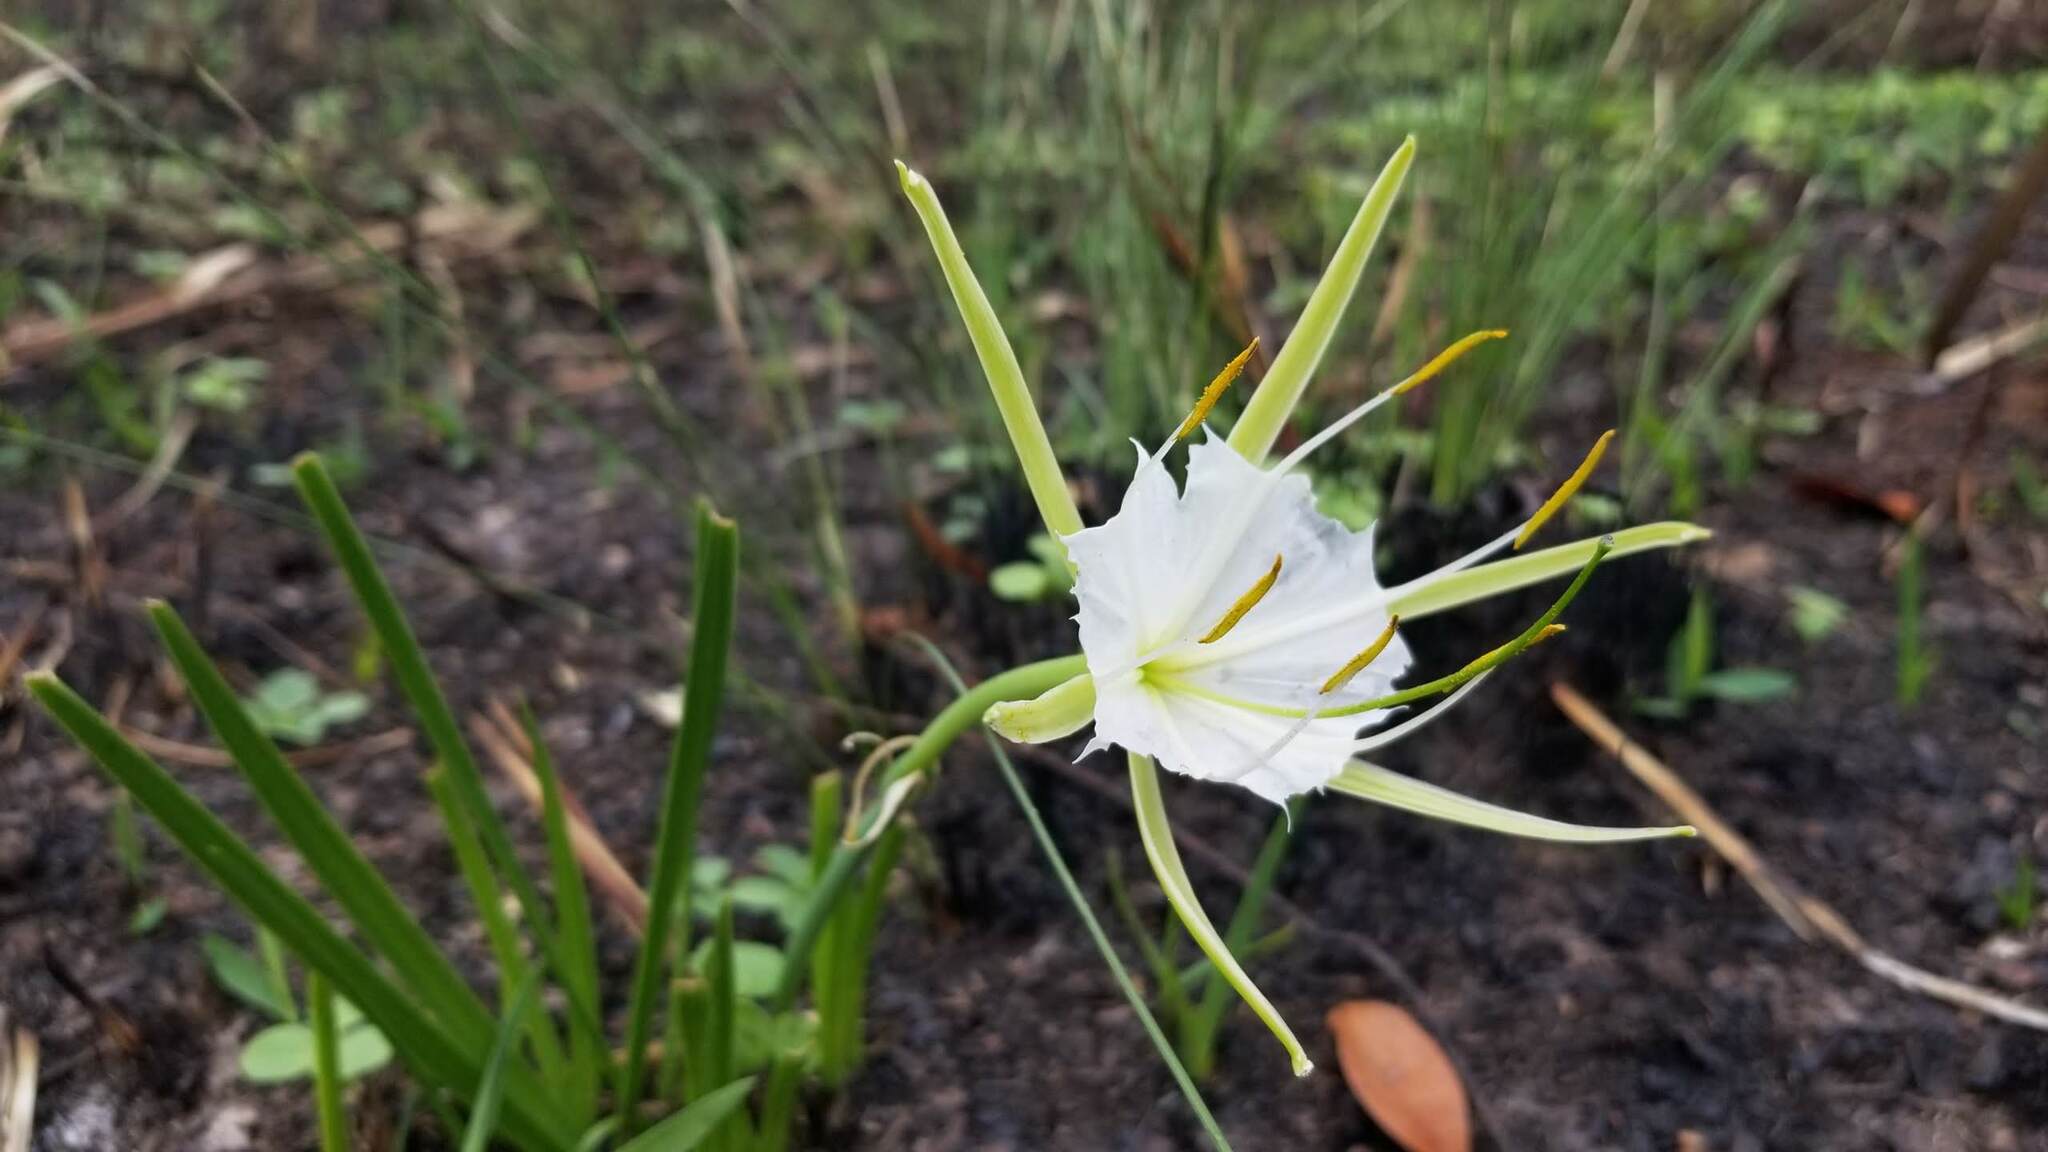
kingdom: Plantae
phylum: Tracheophyta
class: Liliopsida
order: Asparagales
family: Amaryllidaceae
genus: Hymenocallis
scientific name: Hymenocallis palmeri
